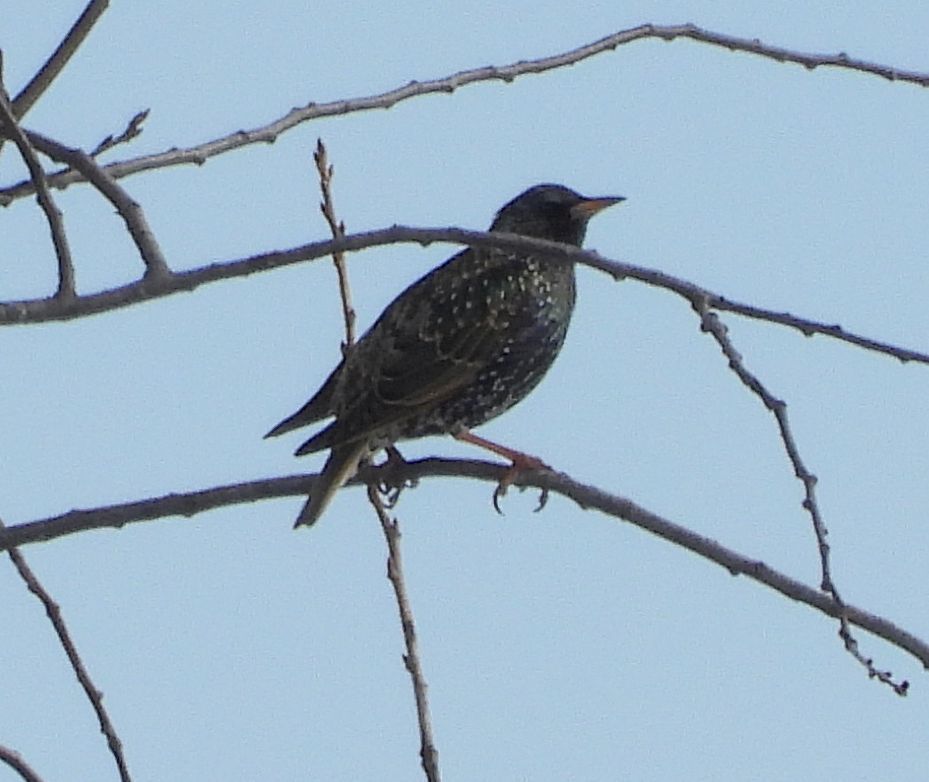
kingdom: Animalia
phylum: Chordata
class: Aves
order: Passeriformes
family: Sturnidae
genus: Sturnus
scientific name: Sturnus vulgaris
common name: Common starling
